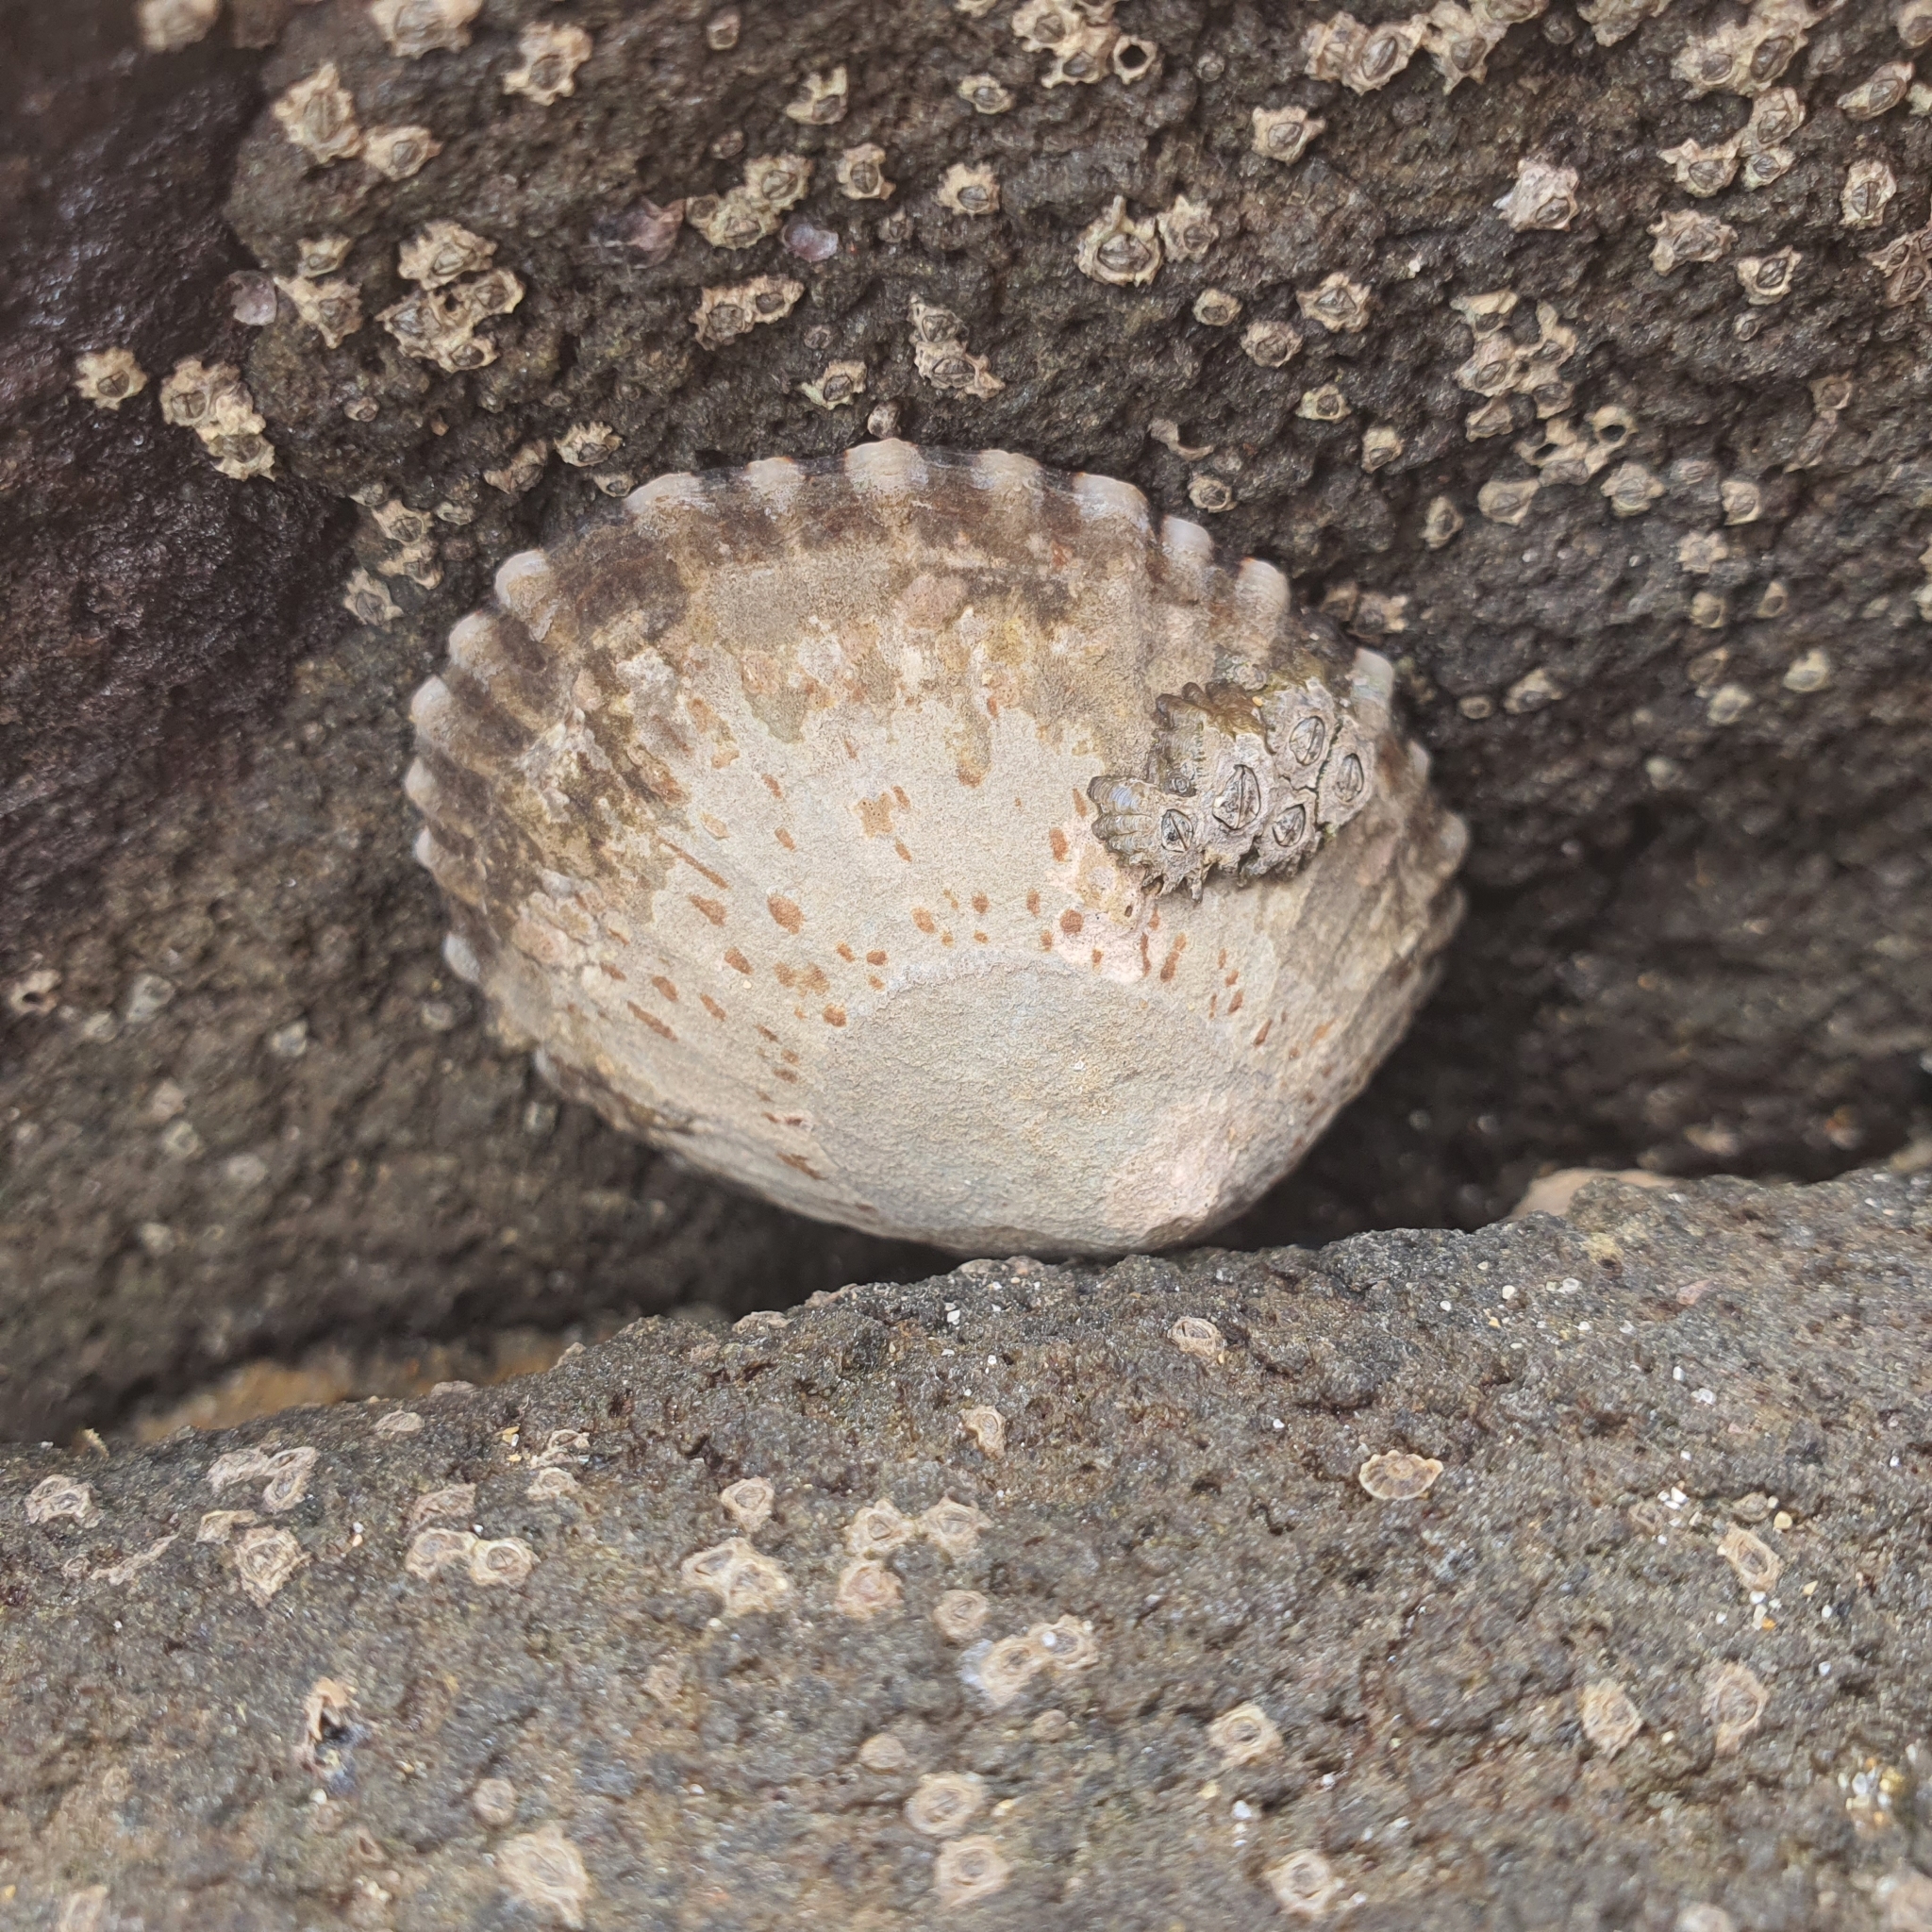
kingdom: Animalia
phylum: Mollusca
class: Gastropoda
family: Nacellidae
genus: Cellana
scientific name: Cellana tramoserica
